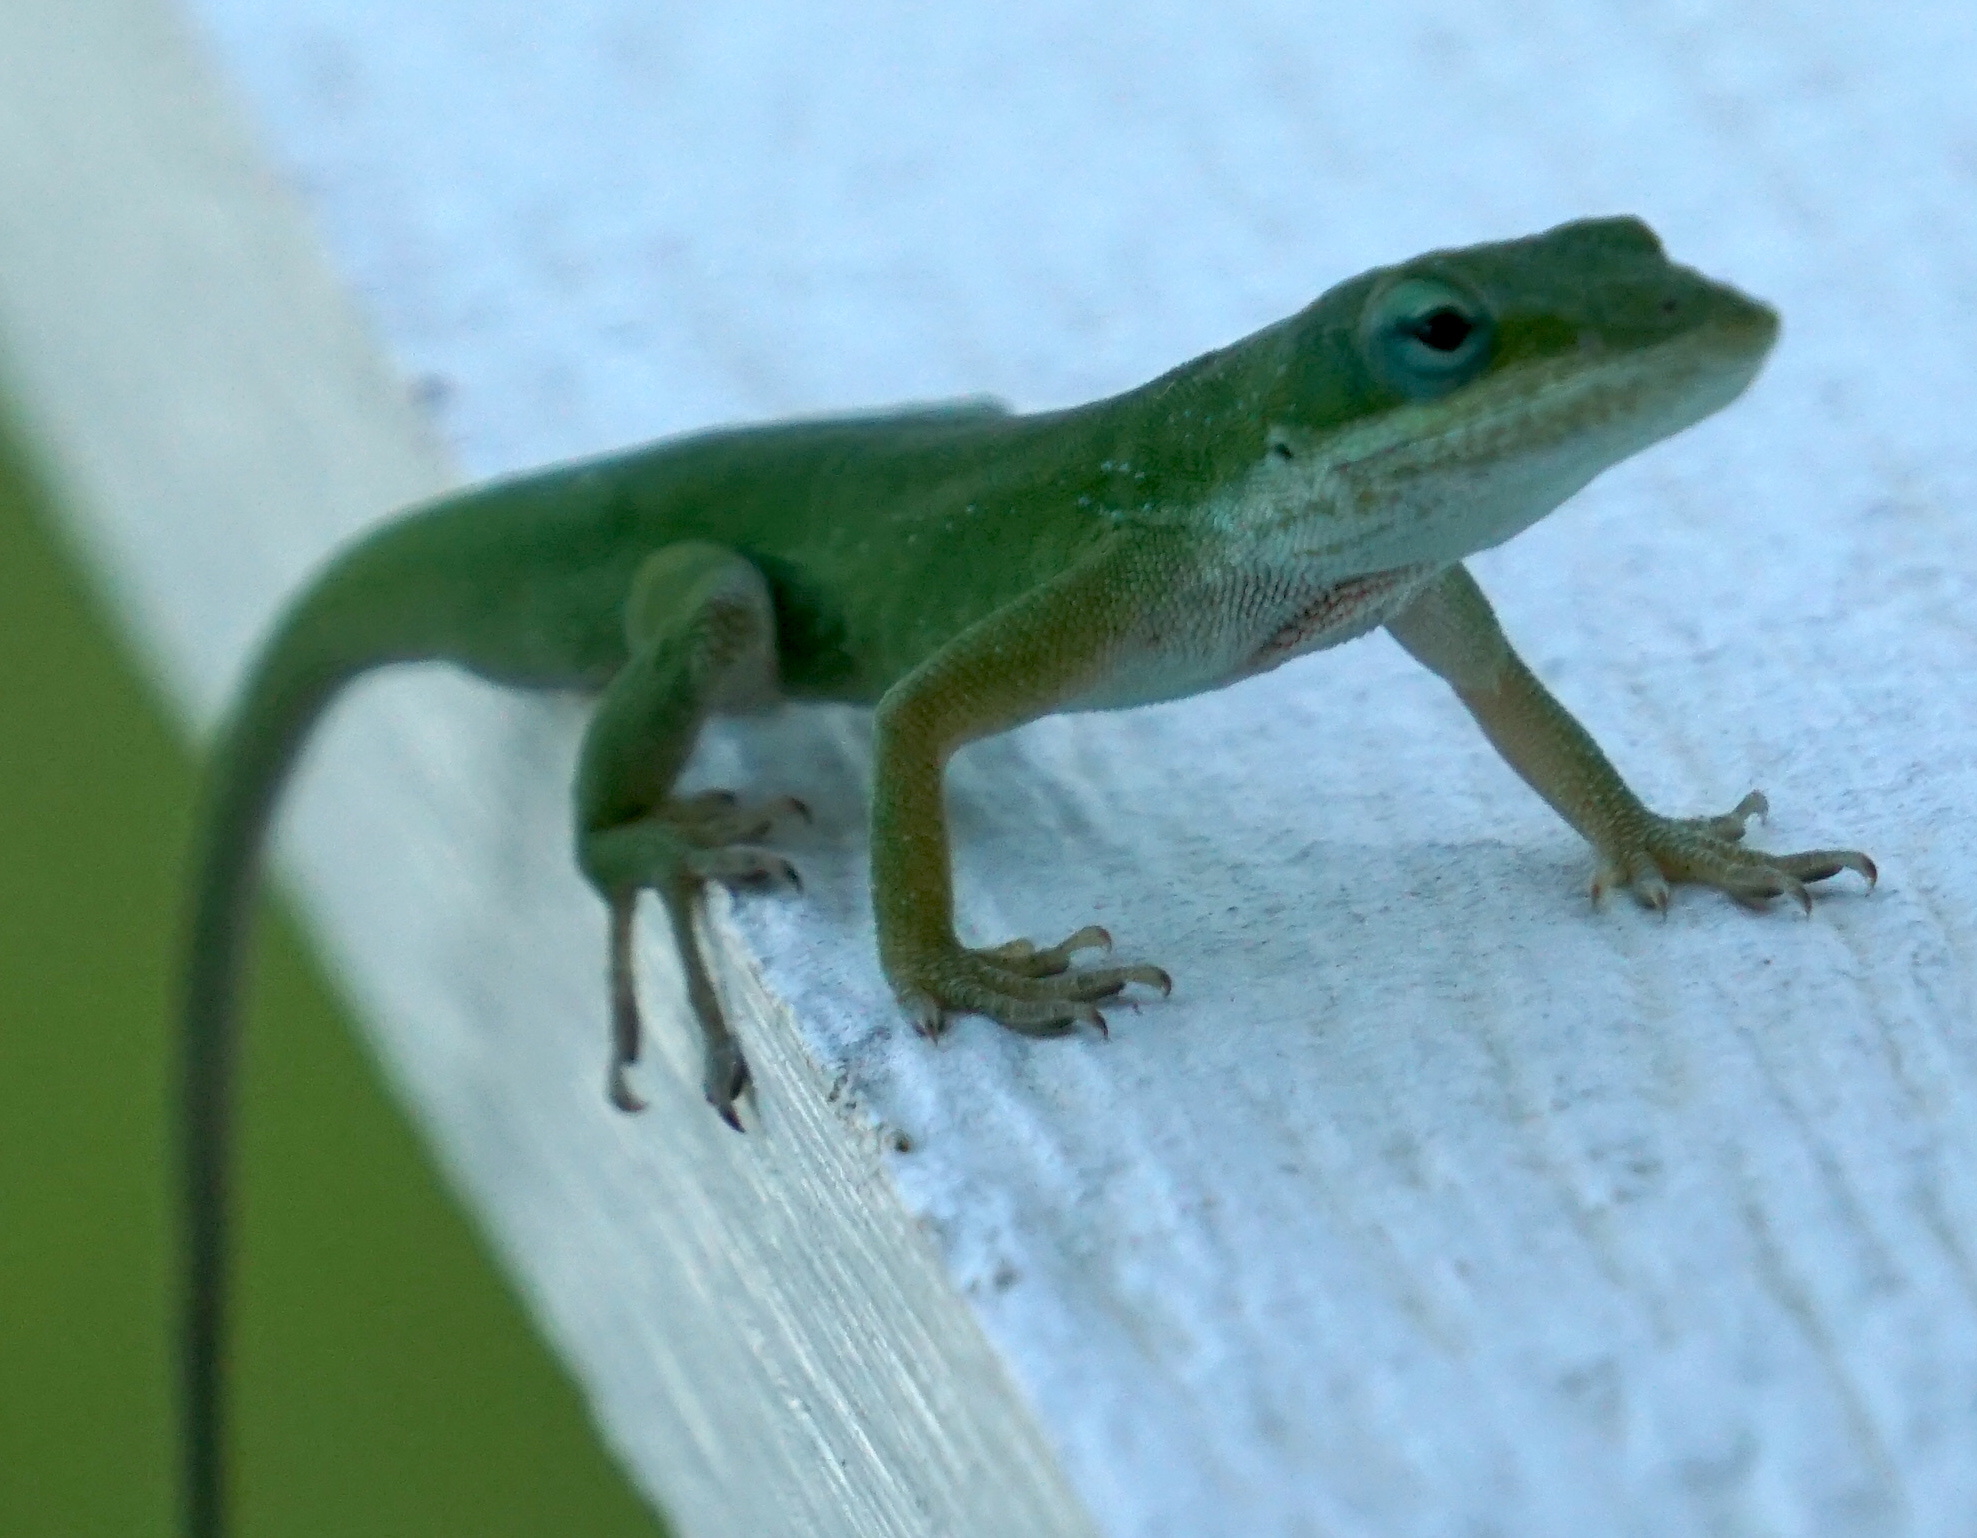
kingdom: Animalia
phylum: Chordata
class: Squamata
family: Dactyloidae
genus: Anolis
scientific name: Anolis carolinensis
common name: Green anole
